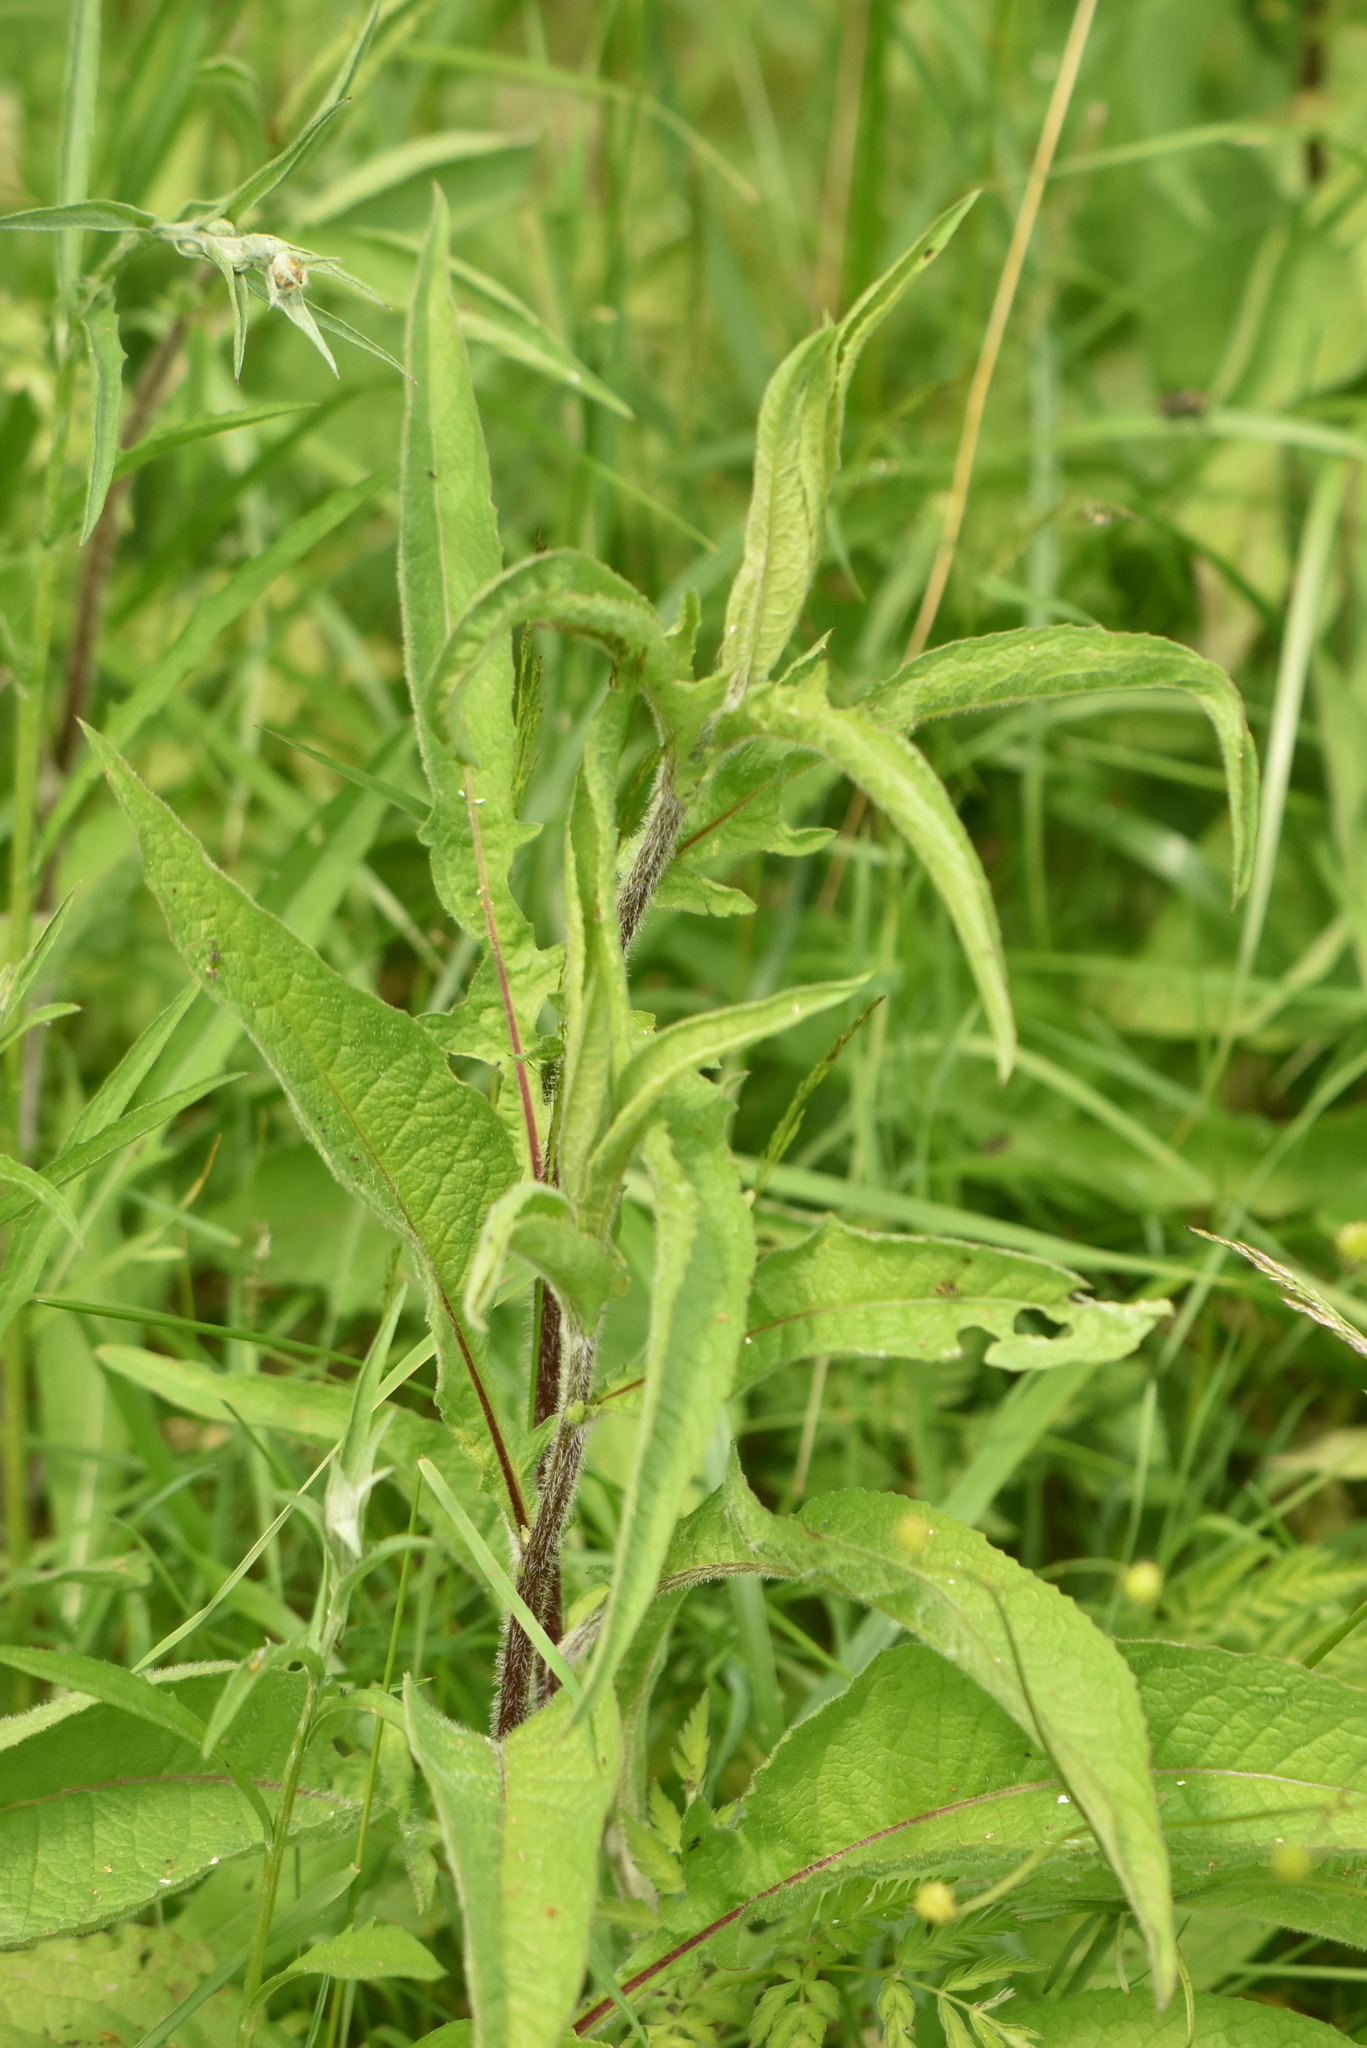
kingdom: Plantae
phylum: Tracheophyta
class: Magnoliopsida
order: Asterales
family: Asteraceae
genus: Centaurea
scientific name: Centaurea pseudophrygia
